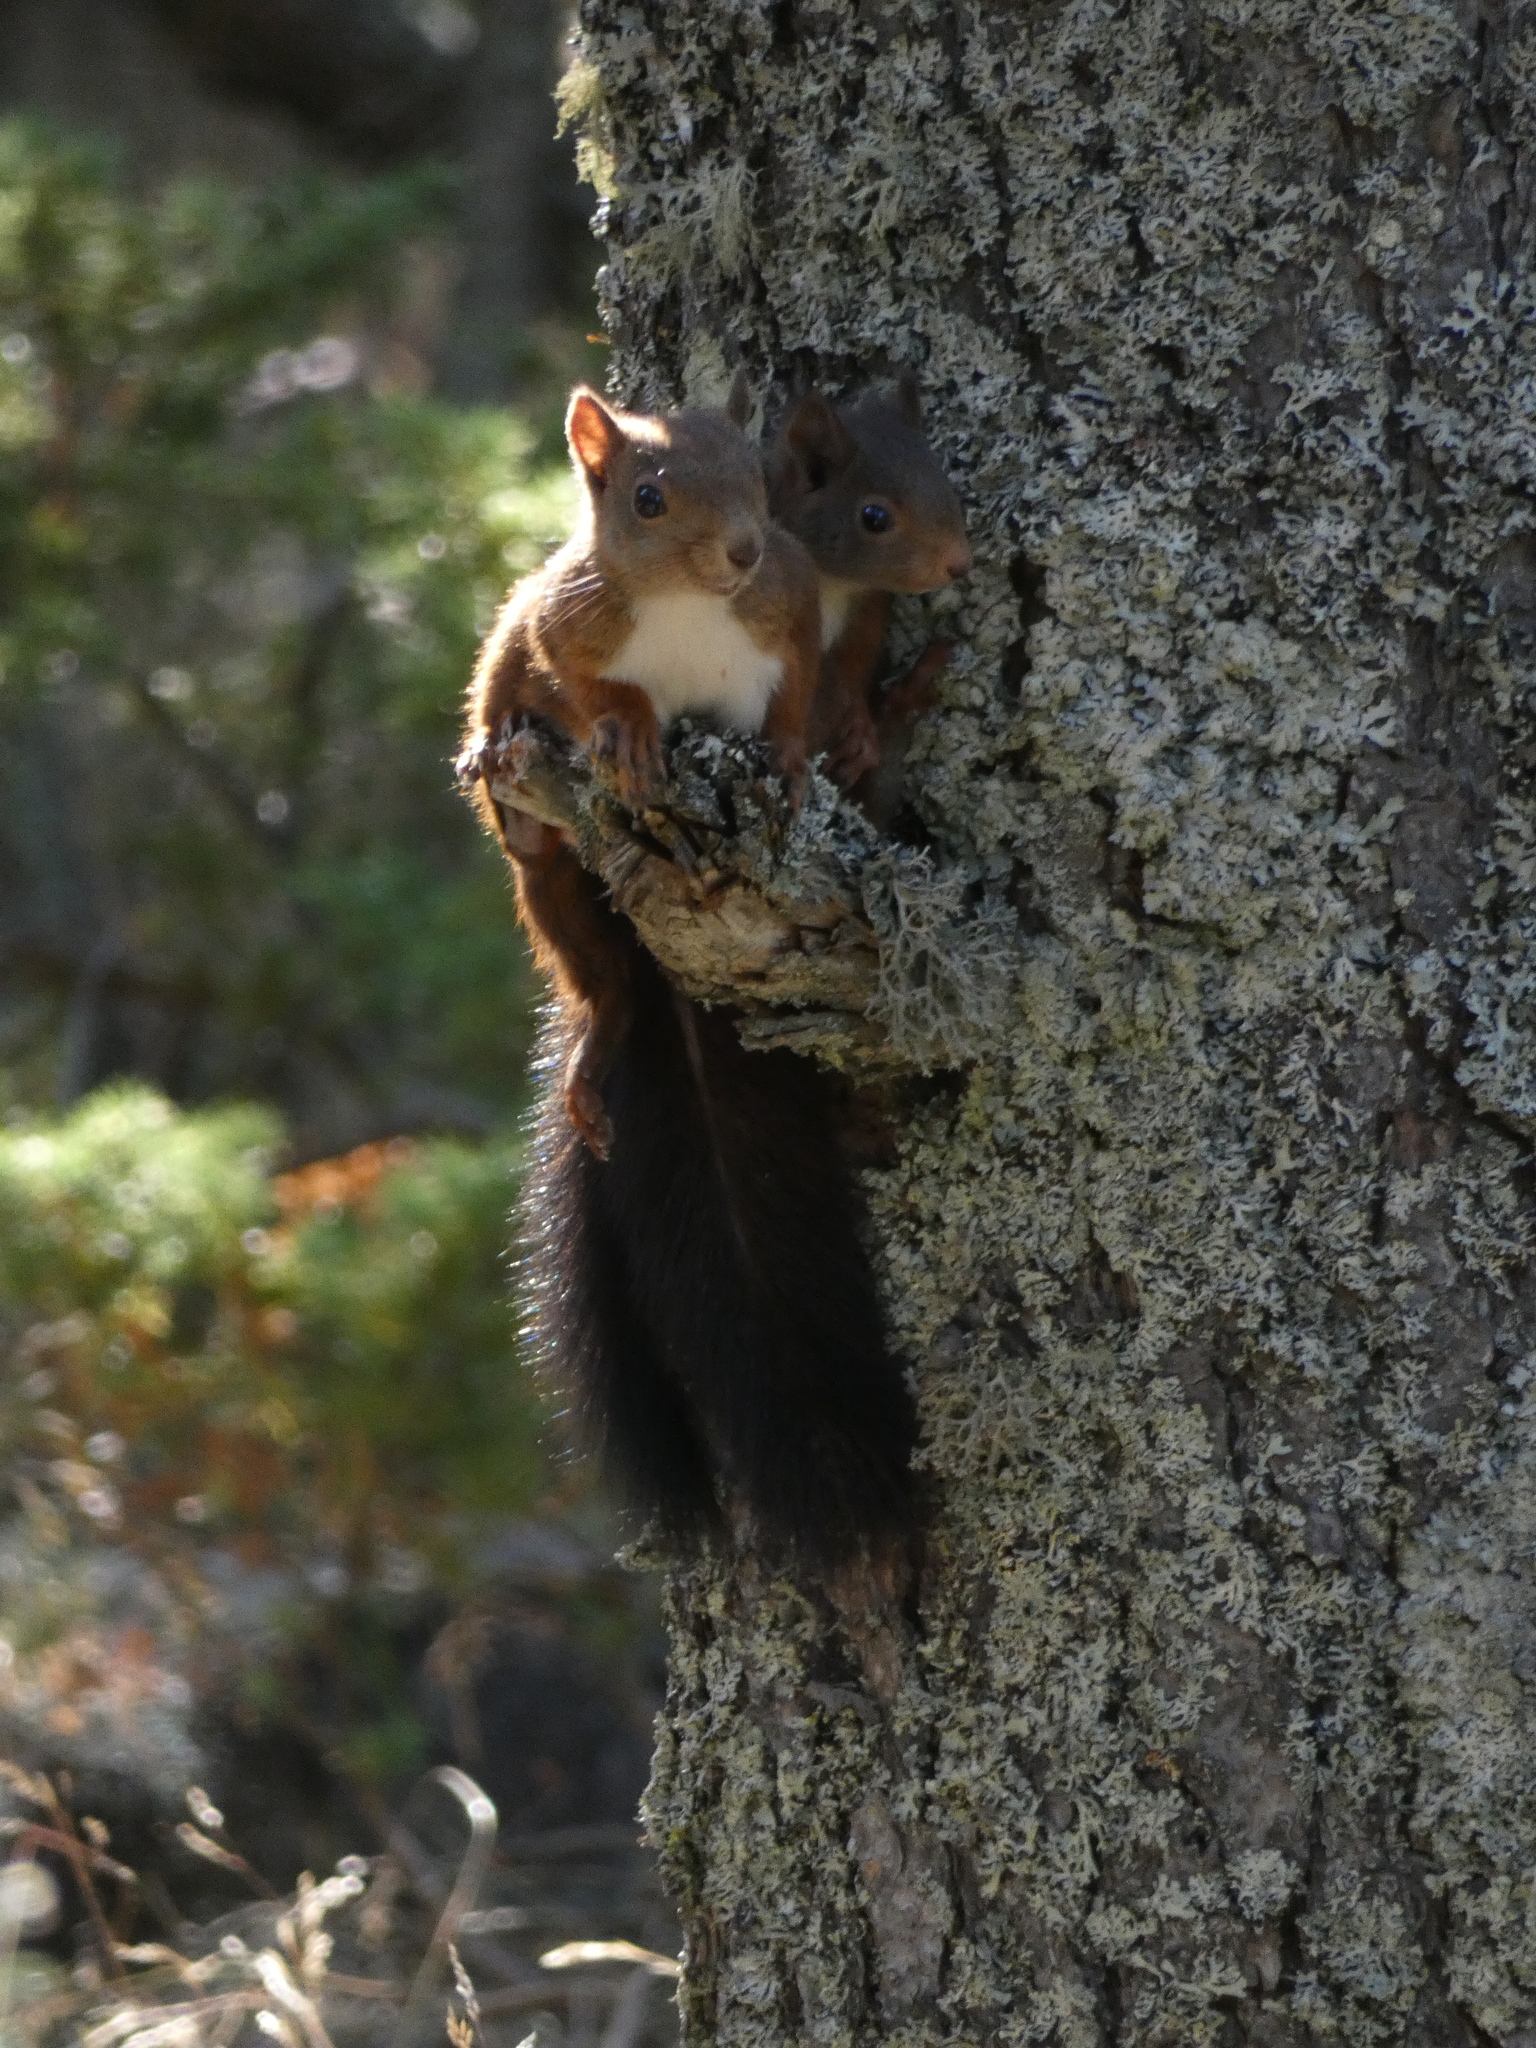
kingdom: Animalia
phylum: Chordata
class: Mammalia
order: Rodentia
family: Sciuridae
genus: Sciurus
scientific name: Sciurus vulgaris
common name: Eurasian red squirrel
